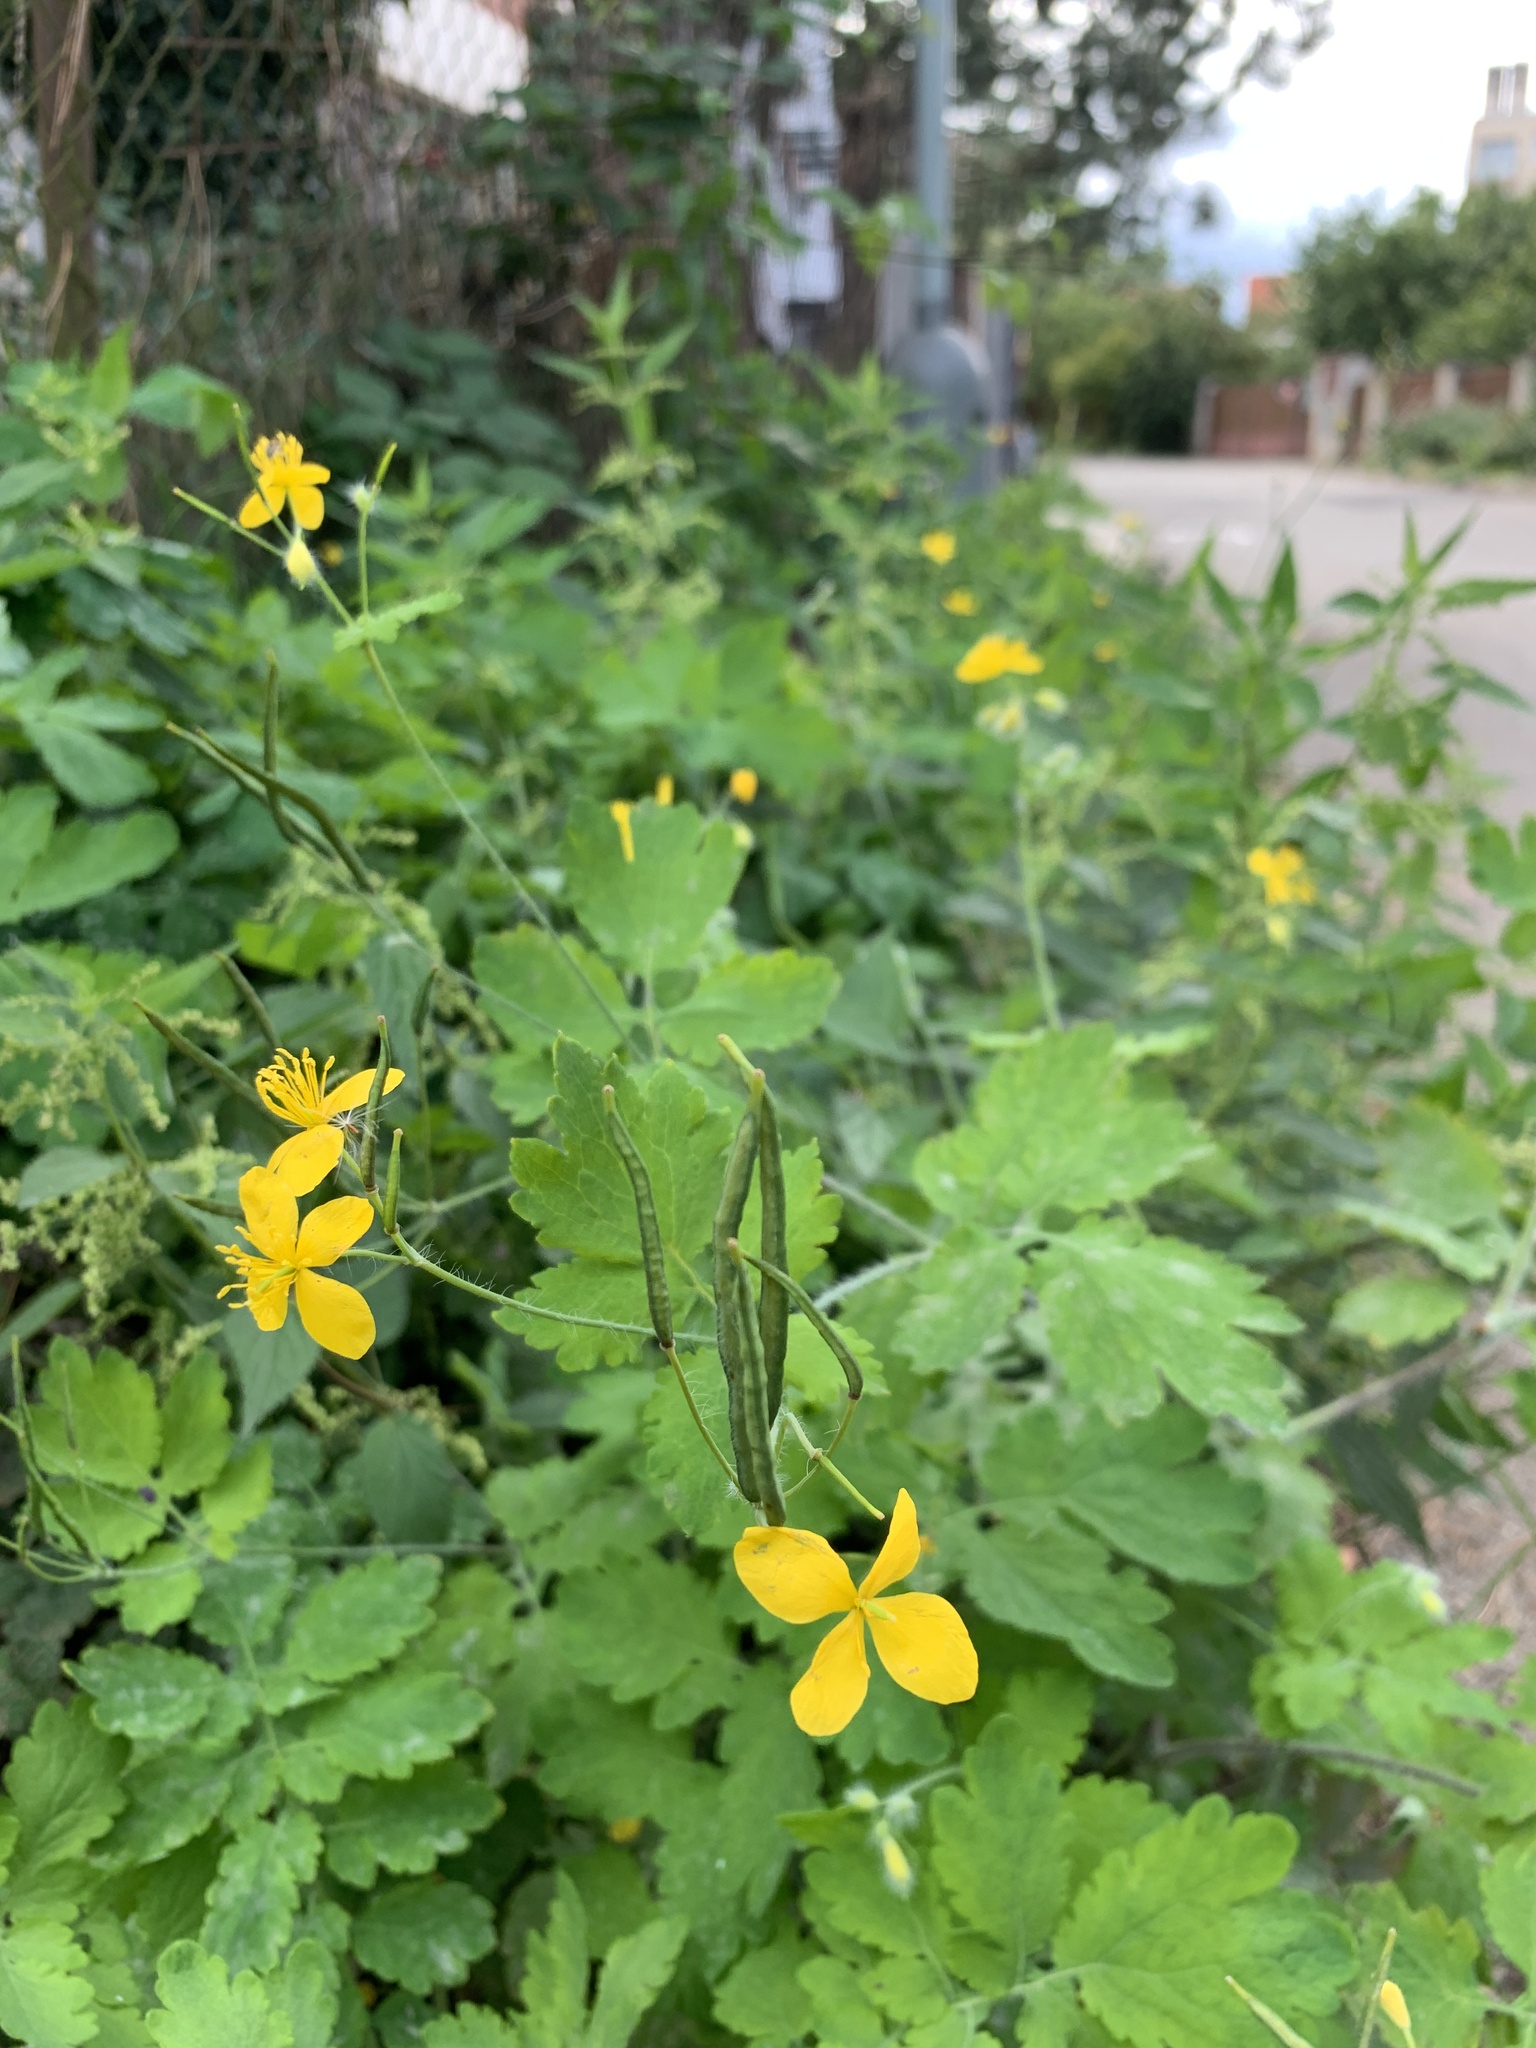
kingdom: Plantae
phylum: Tracheophyta
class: Magnoliopsida
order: Ranunculales
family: Papaveraceae
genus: Chelidonium
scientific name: Chelidonium majus
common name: Greater celandine
